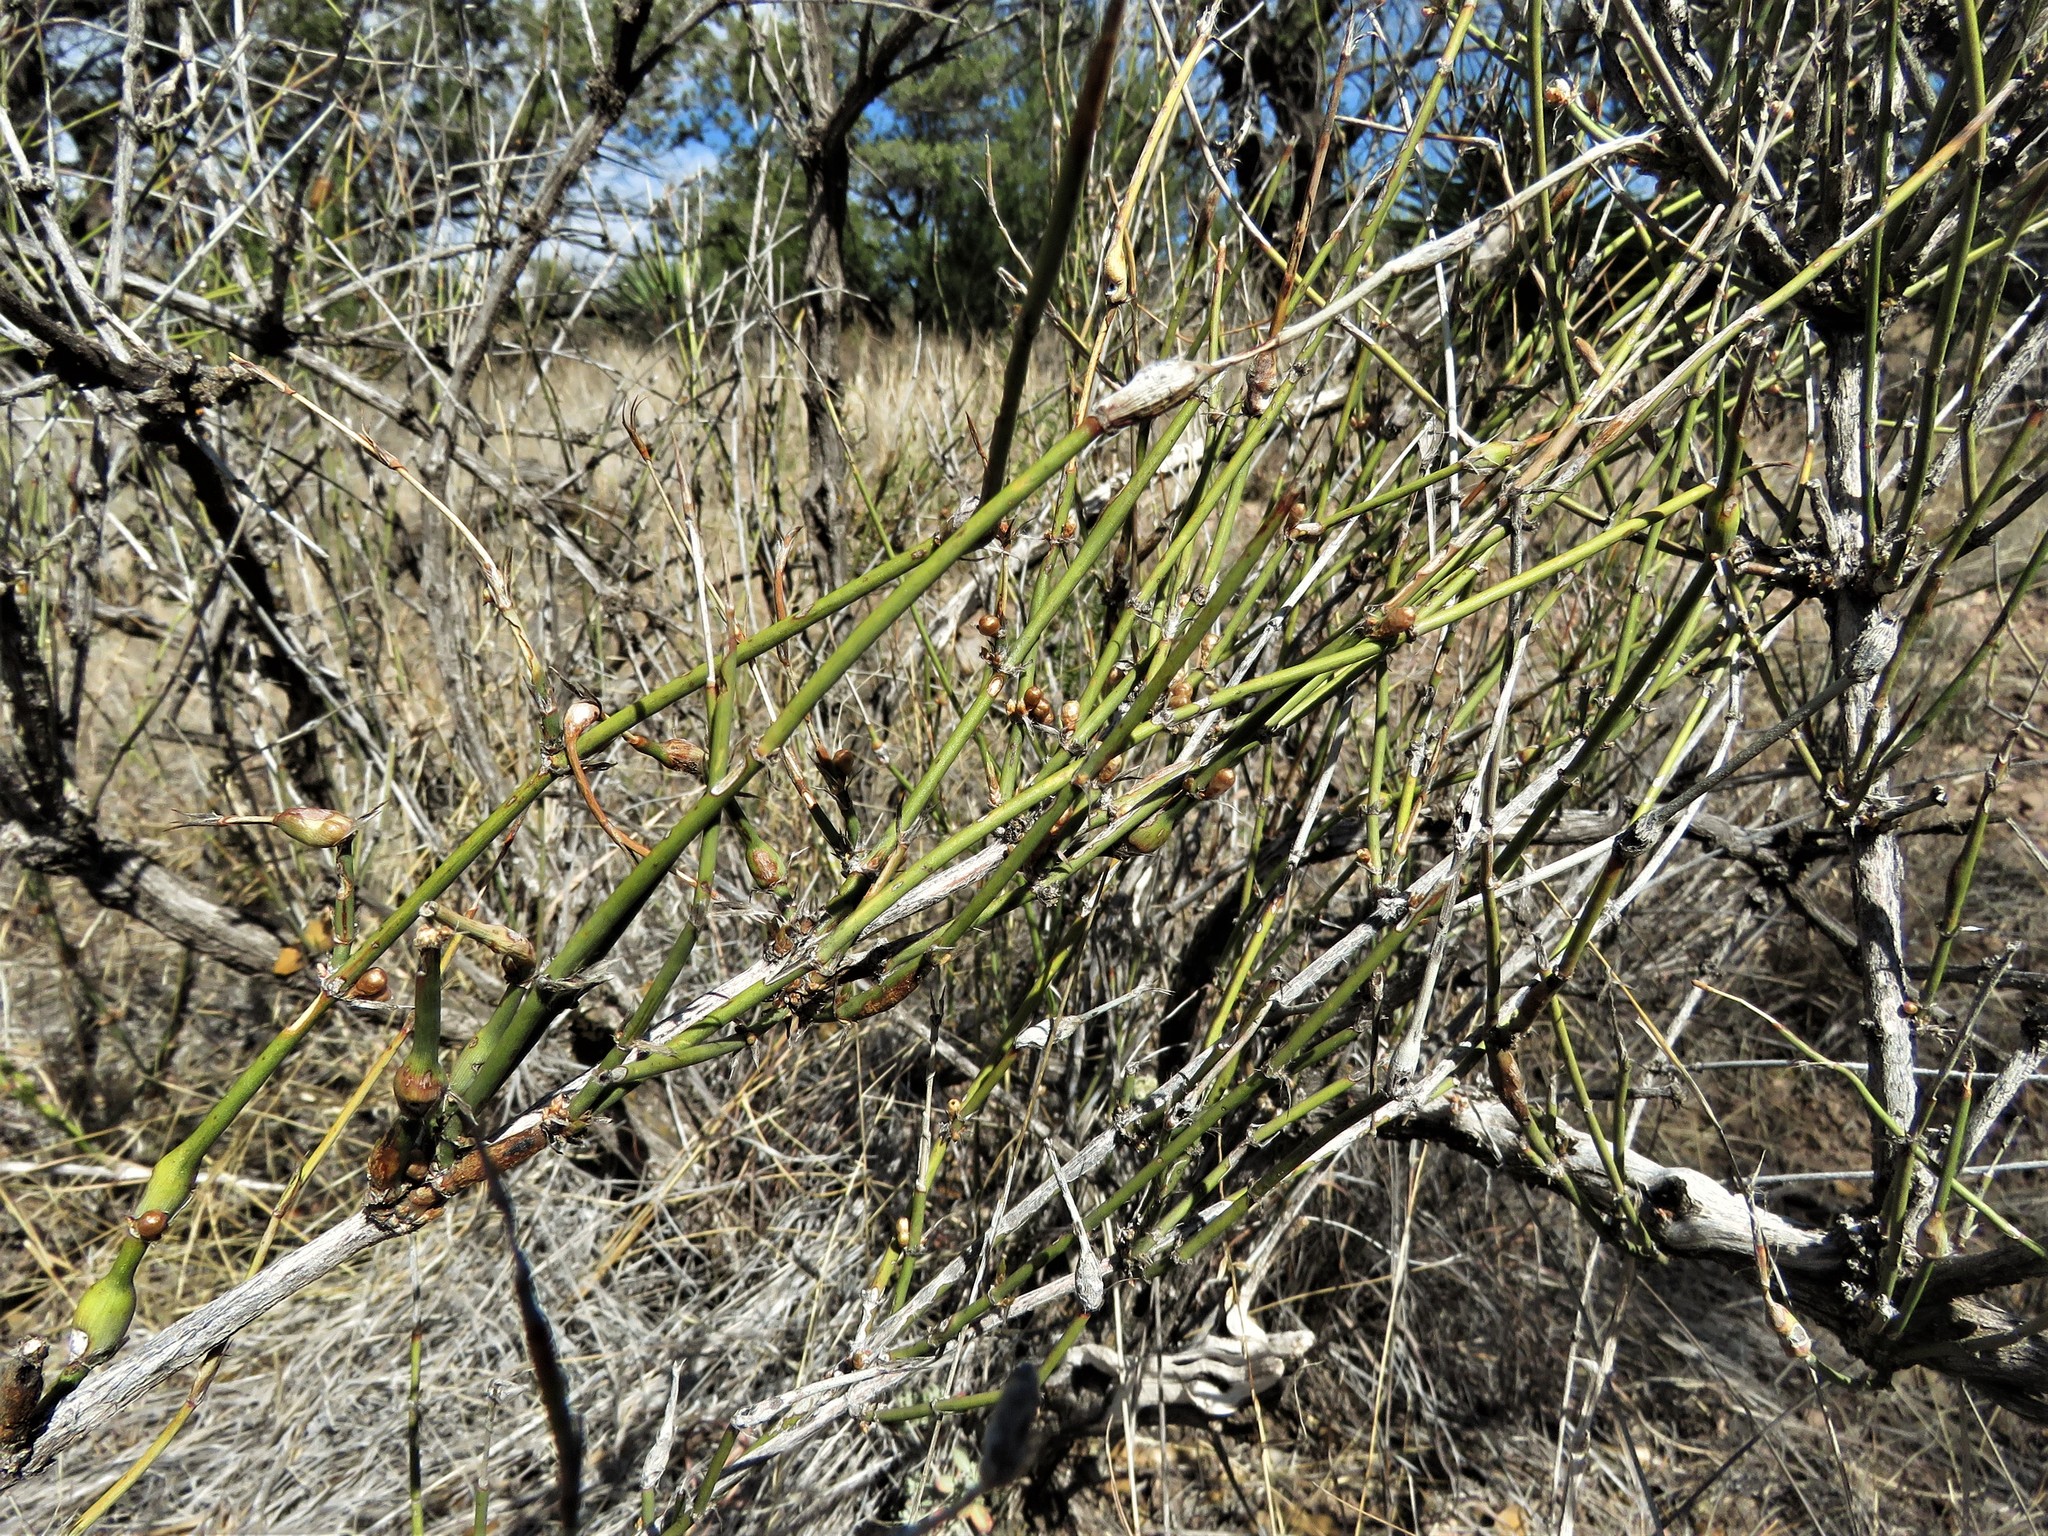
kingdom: Plantae
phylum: Tracheophyta
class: Gnetopsida
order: Ephedrales
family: Ephedraceae
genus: Ephedra
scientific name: Ephedra trifurca
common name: Mexican-tea
